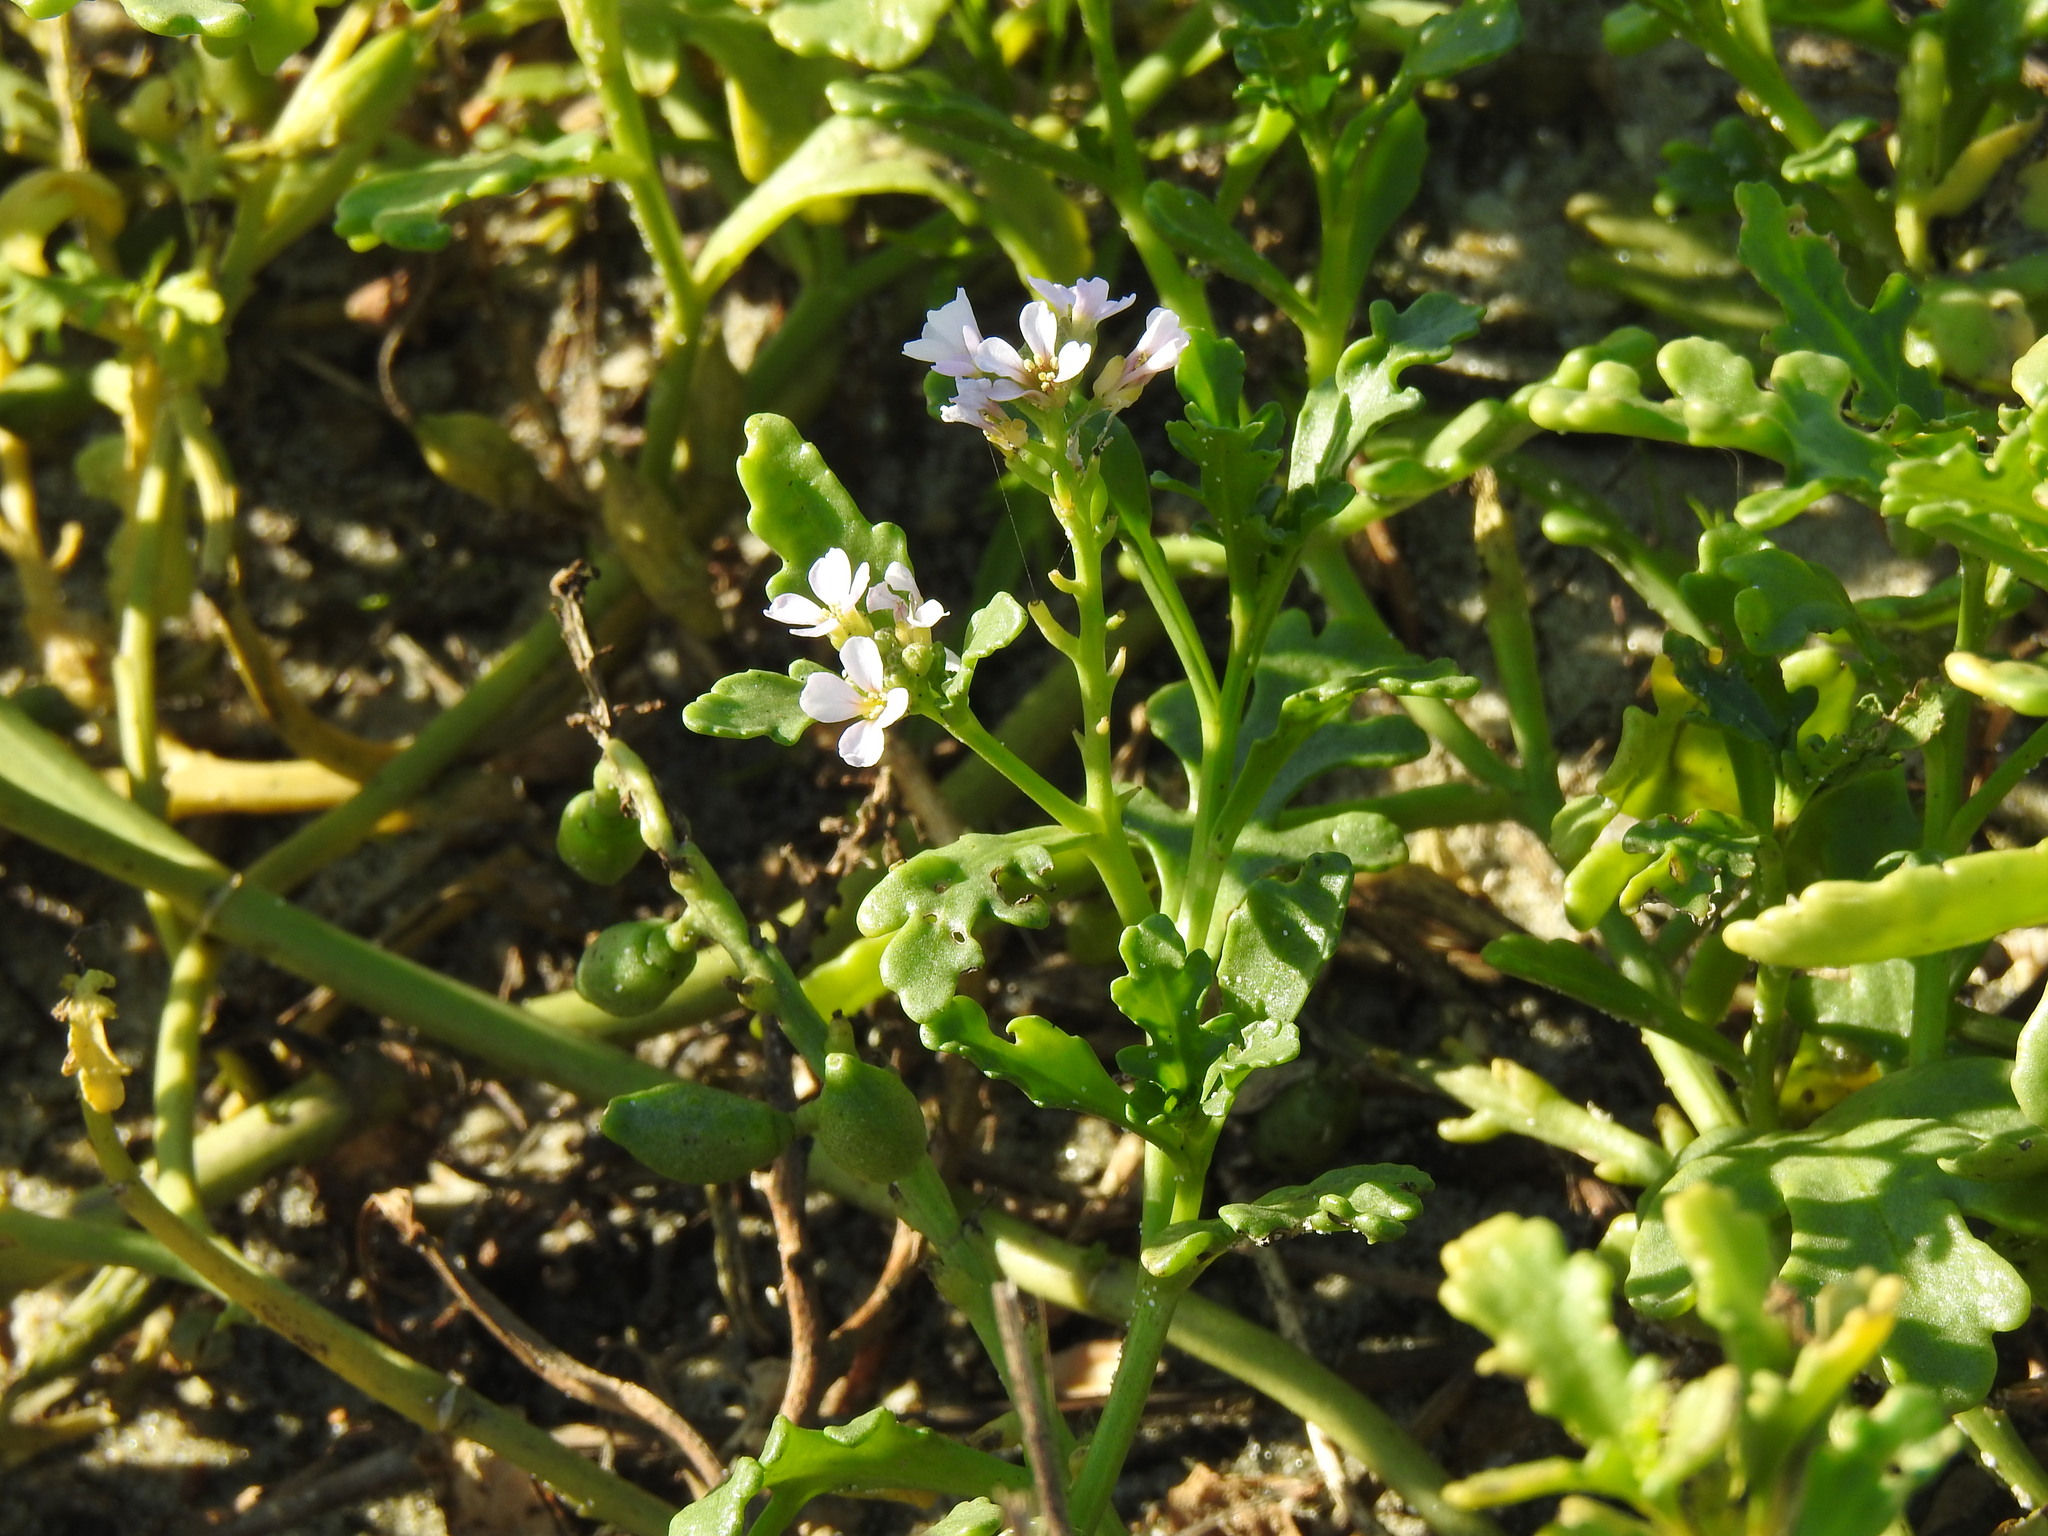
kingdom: Plantae
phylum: Tracheophyta
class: Magnoliopsida
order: Brassicales
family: Brassicaceae
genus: Cakile
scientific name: Cakile maritima
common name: Sea rocket
